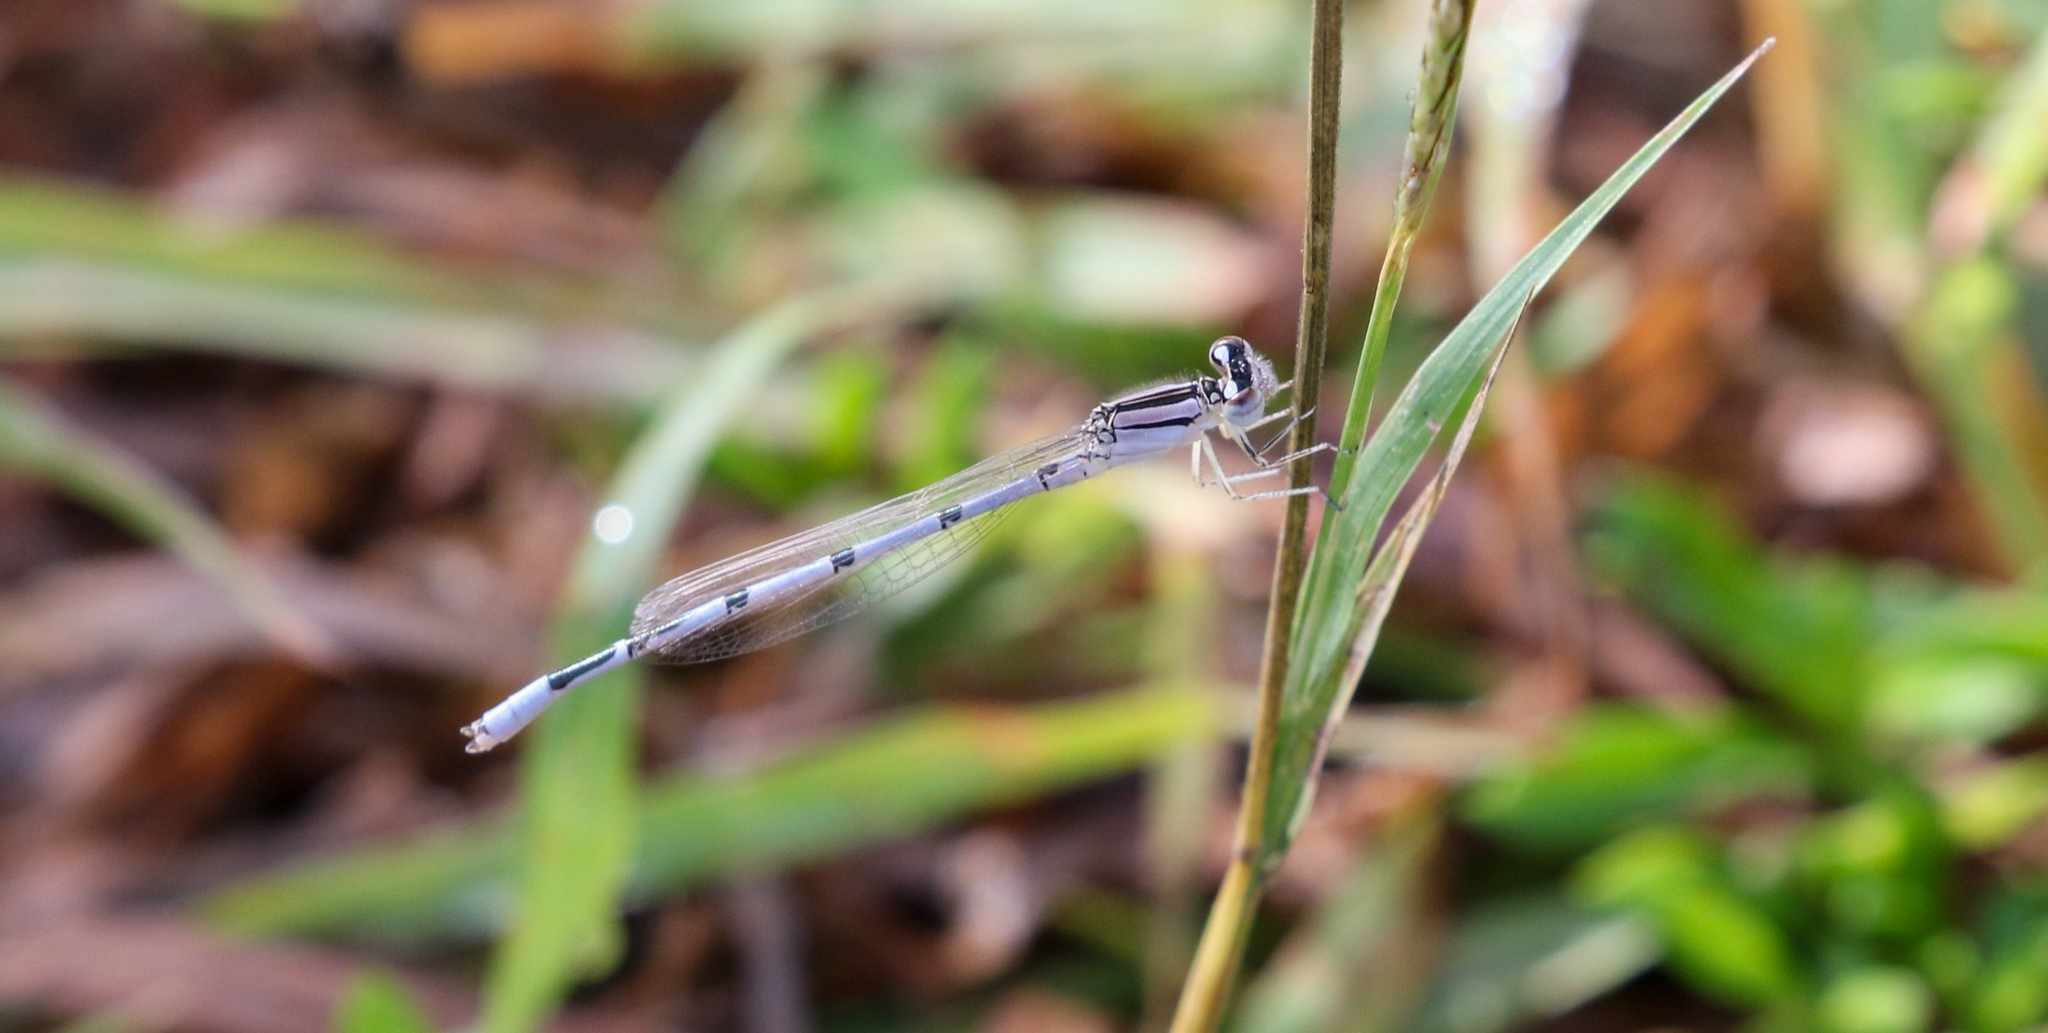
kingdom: Animalia
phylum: Arthropoda
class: Insecta
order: Odonata
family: Coenagrionidae
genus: Enallagma
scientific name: Enallagma civile
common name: Damselfly
